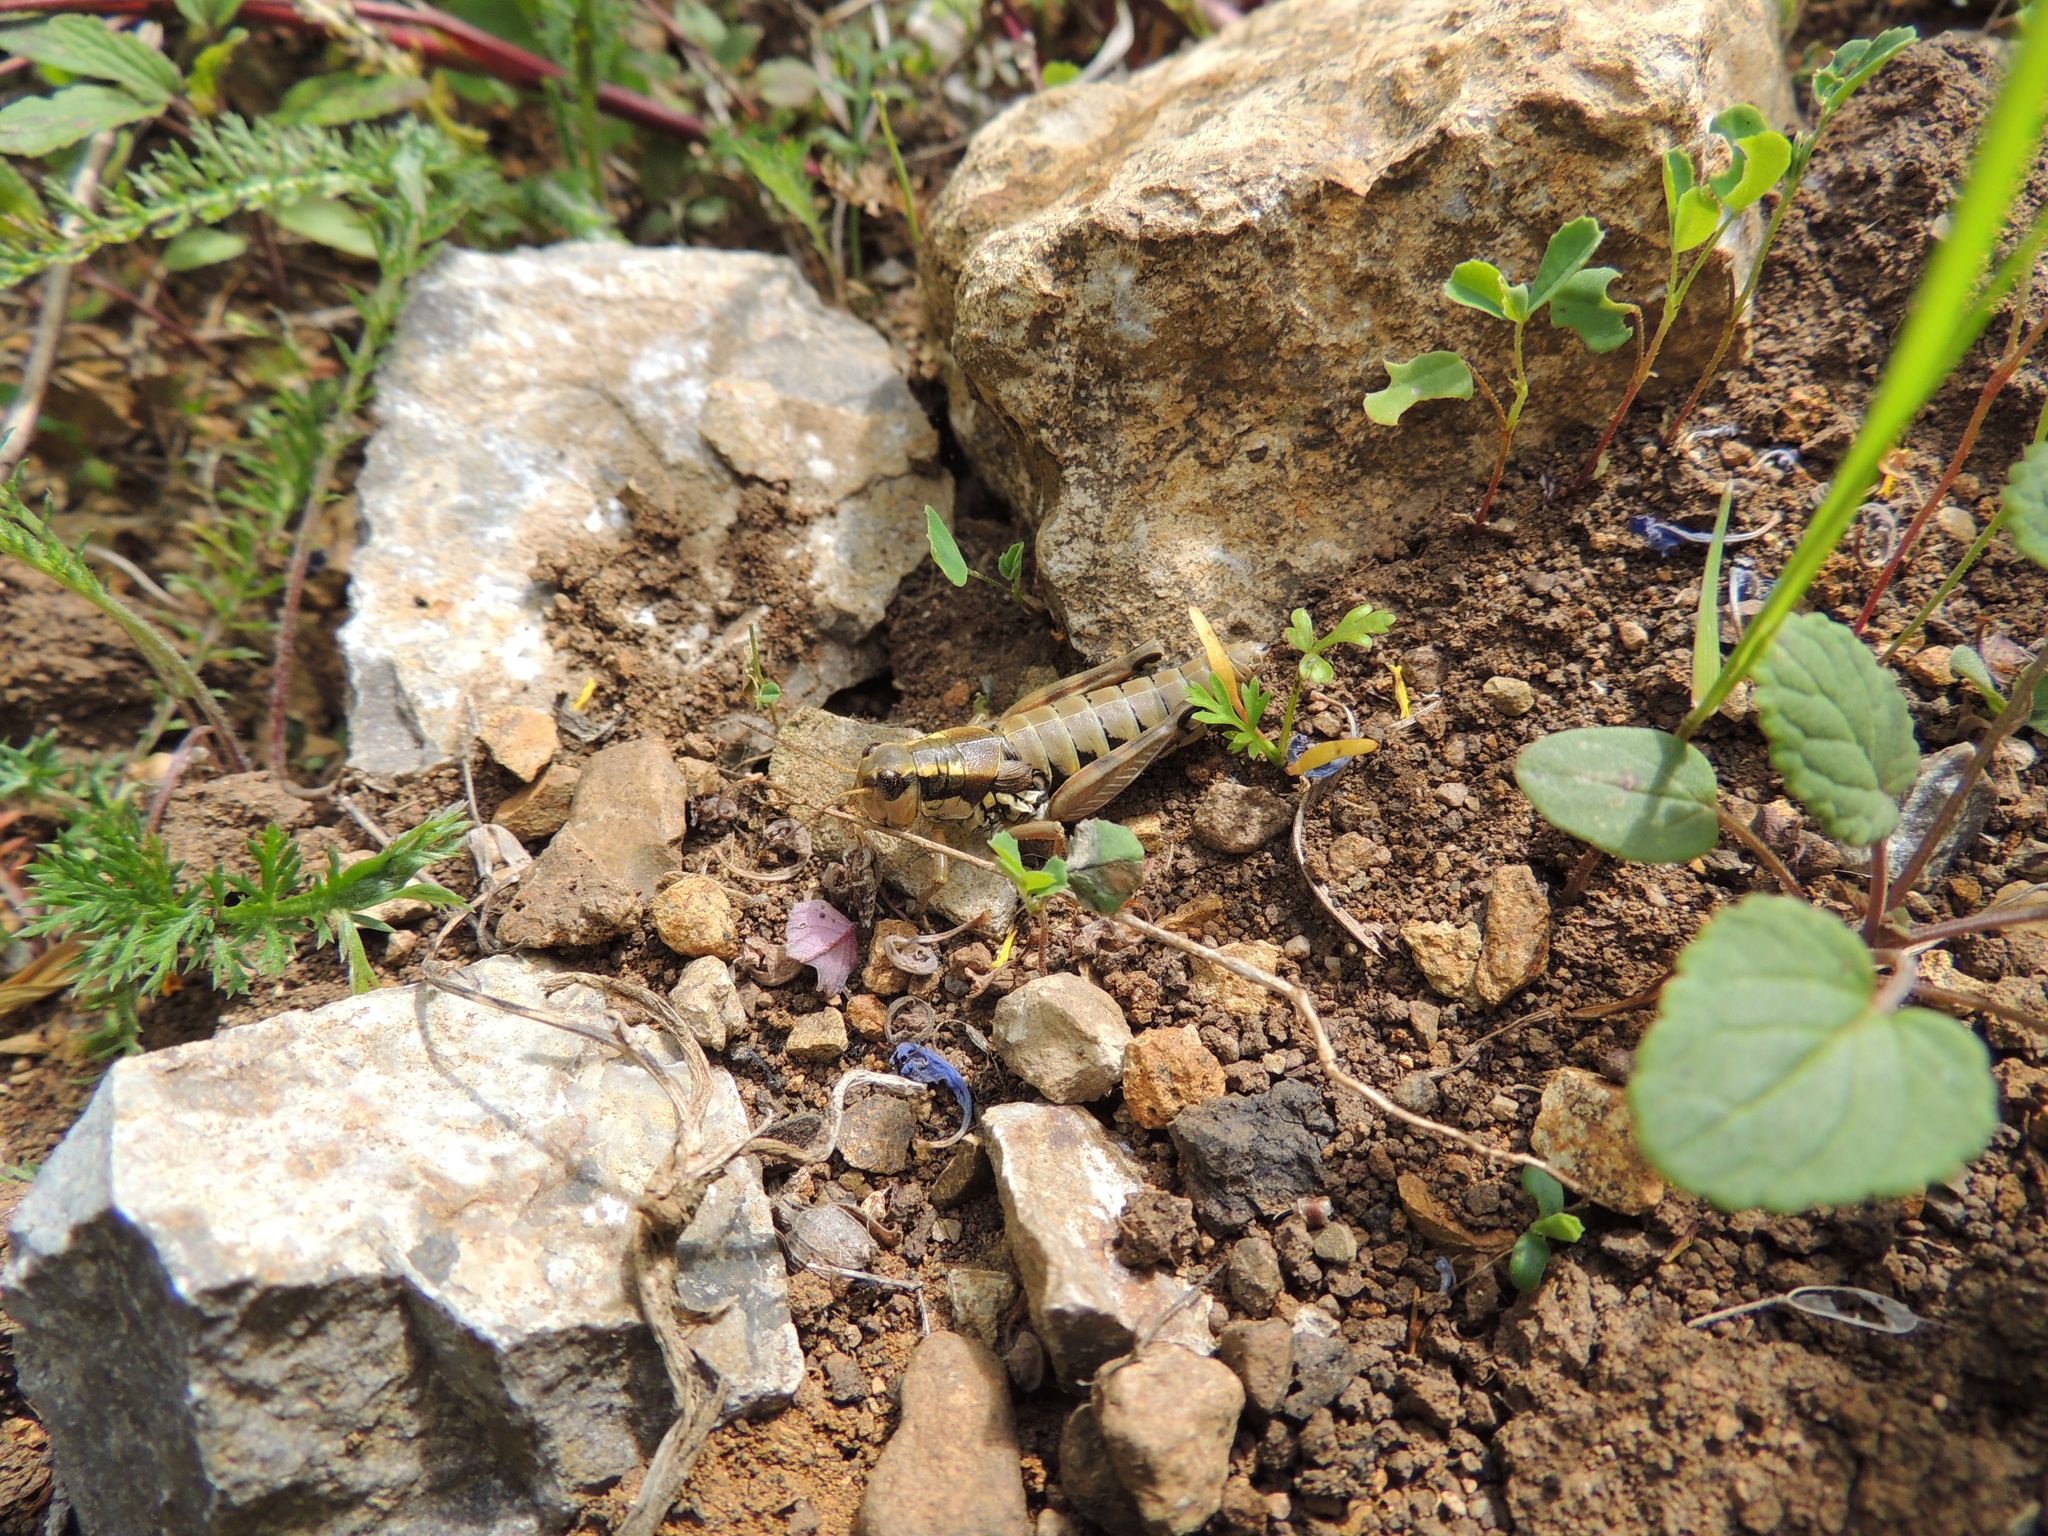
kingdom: Animalia
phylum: Arthropoda
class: Insecta
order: Orthoptera
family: Acrididae
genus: Podisma
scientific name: Podisma pedestris
